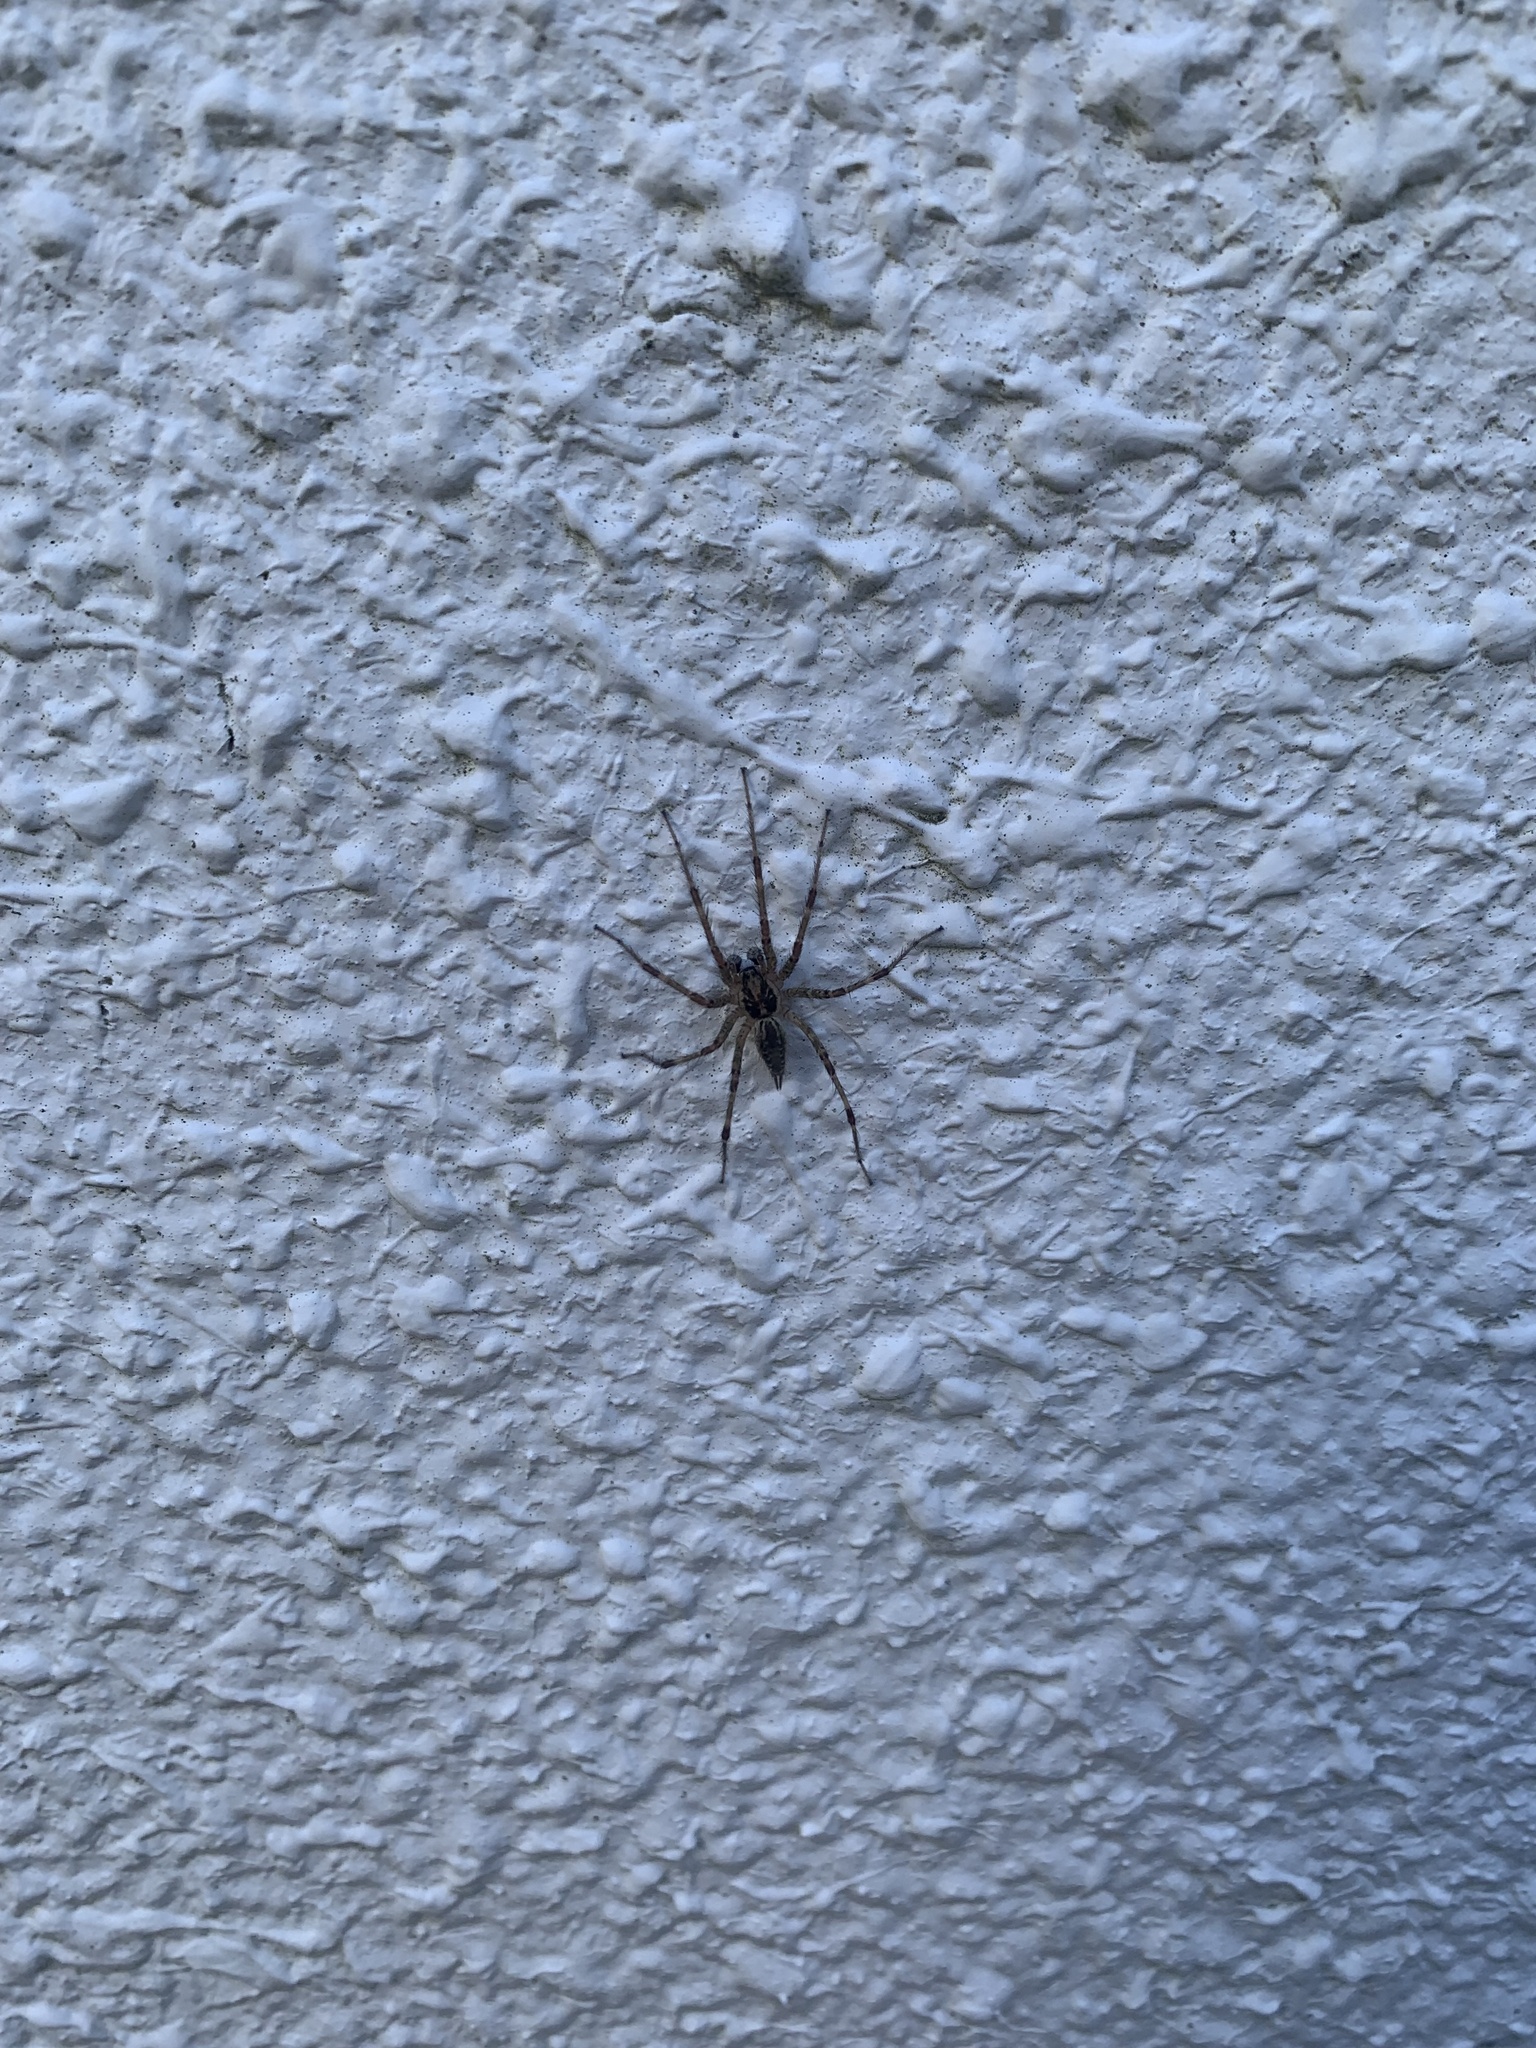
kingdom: Animalia
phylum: Arthropoda
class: Arachnida
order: Araneae
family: Agelenidae
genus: Allagelena
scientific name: Allagelena opulenta
